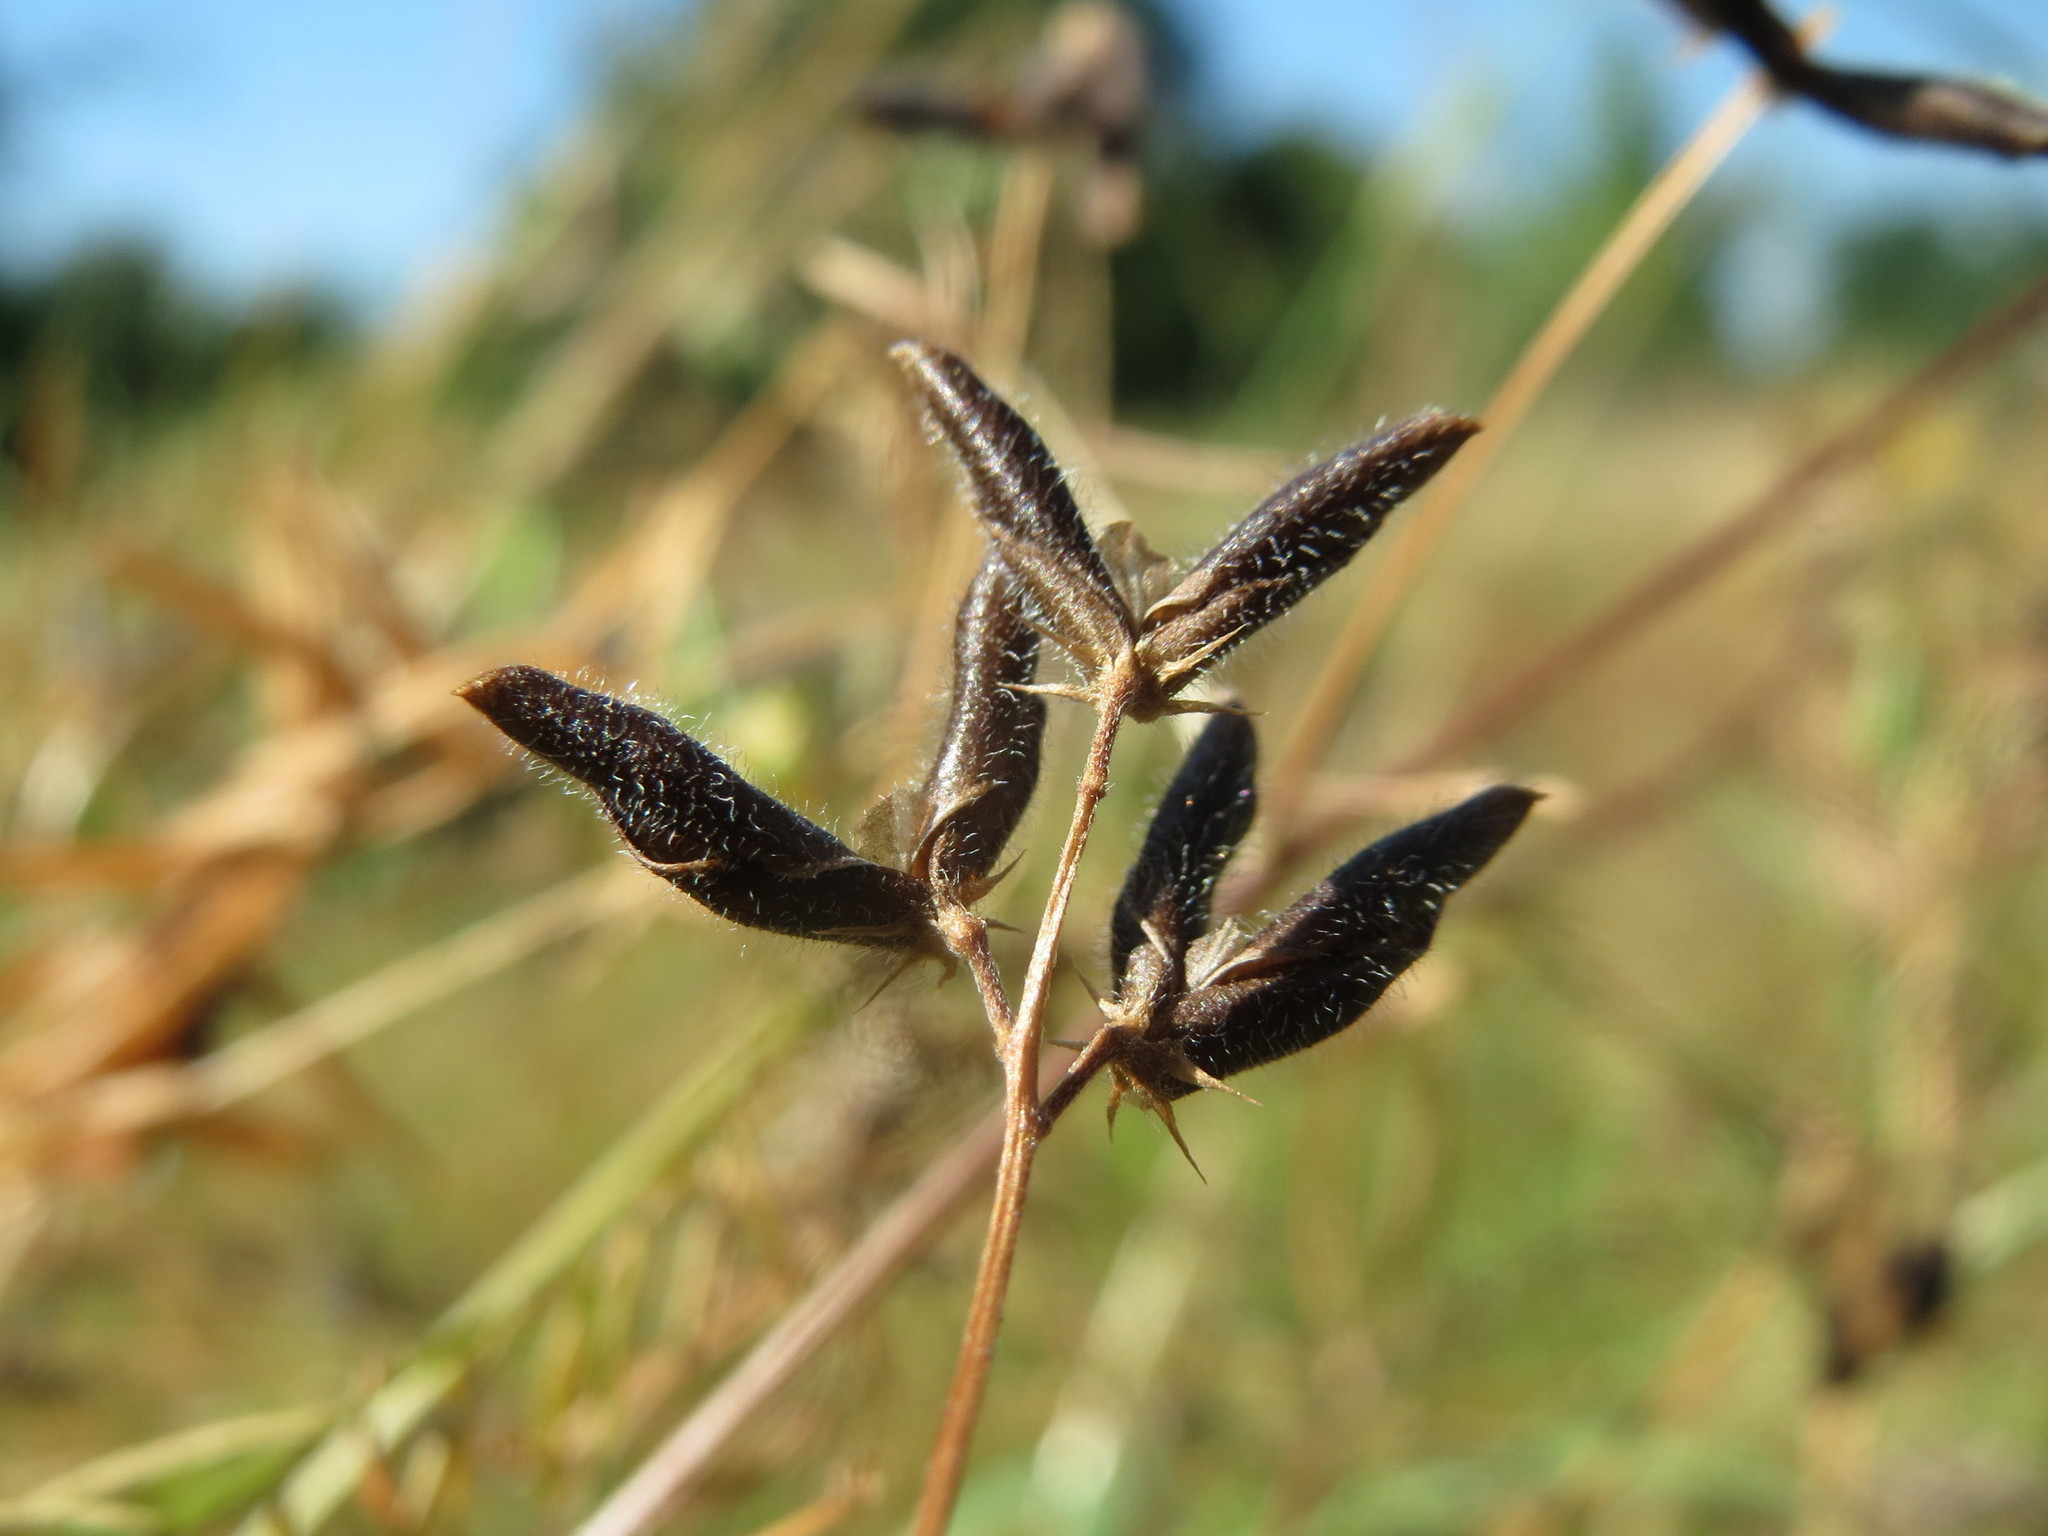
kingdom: Plantae
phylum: Tracheophyta
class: Magnoliopsida
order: Fabales
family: Fabaceae
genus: Vicia
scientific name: Vicia hirsuta
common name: Tiny vetch
